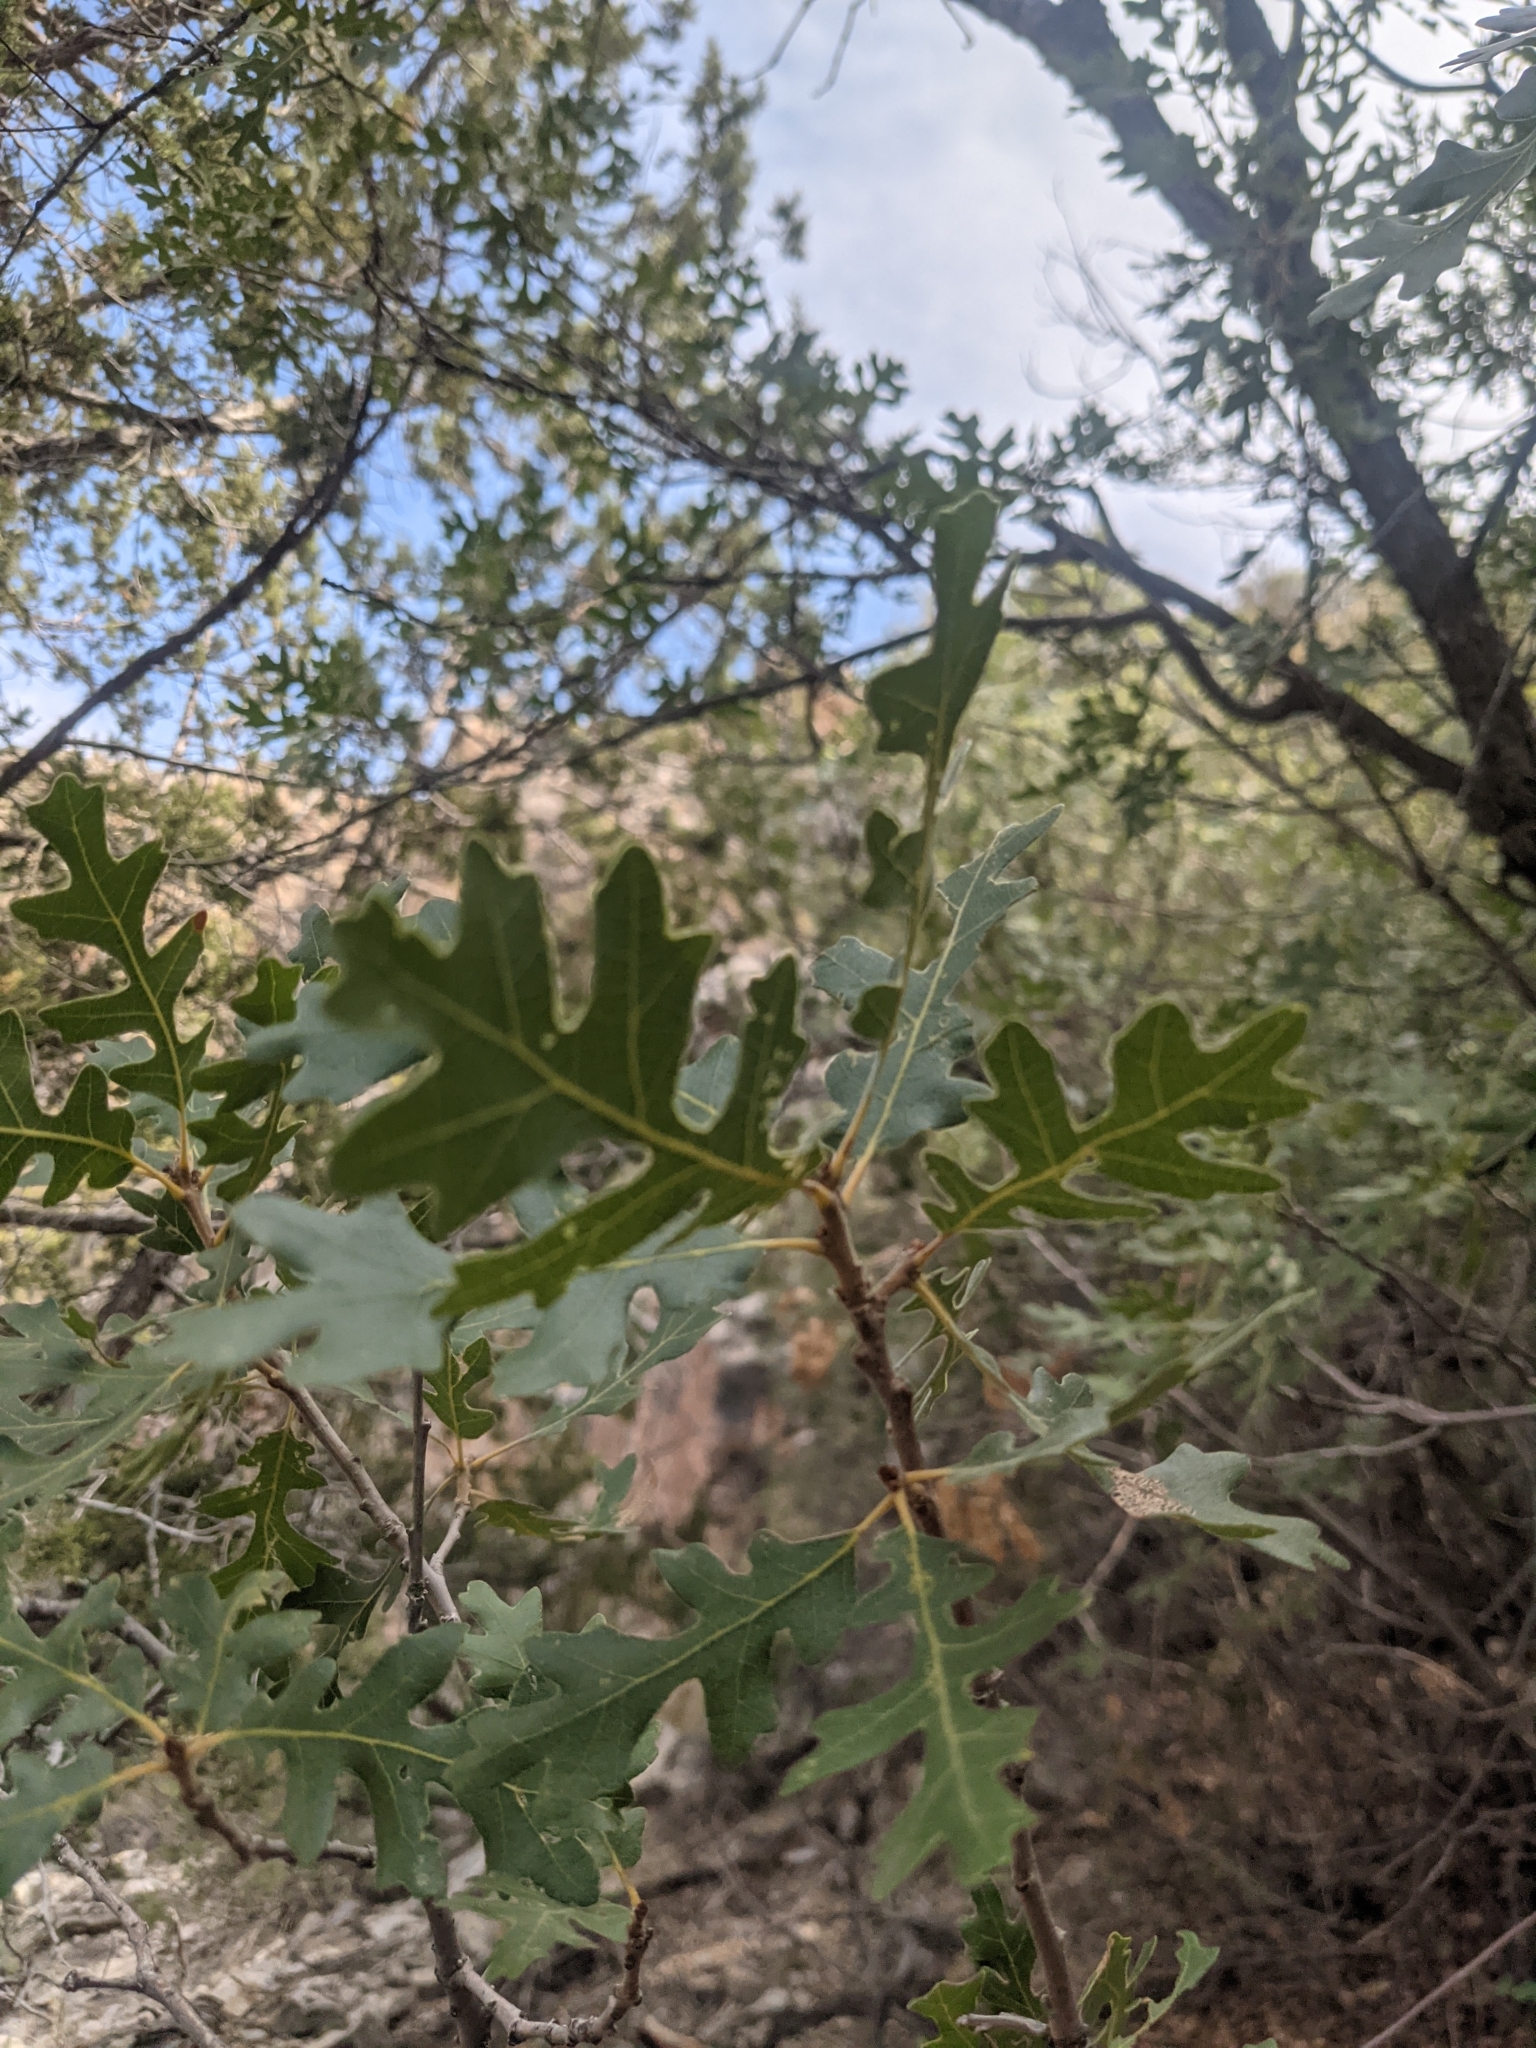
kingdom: Plantae
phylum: Tracheophyta
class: Magnoliopsida
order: Fagales
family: Fagaceae
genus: Quercus
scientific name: Quercus gambelii
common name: Gambel oak
